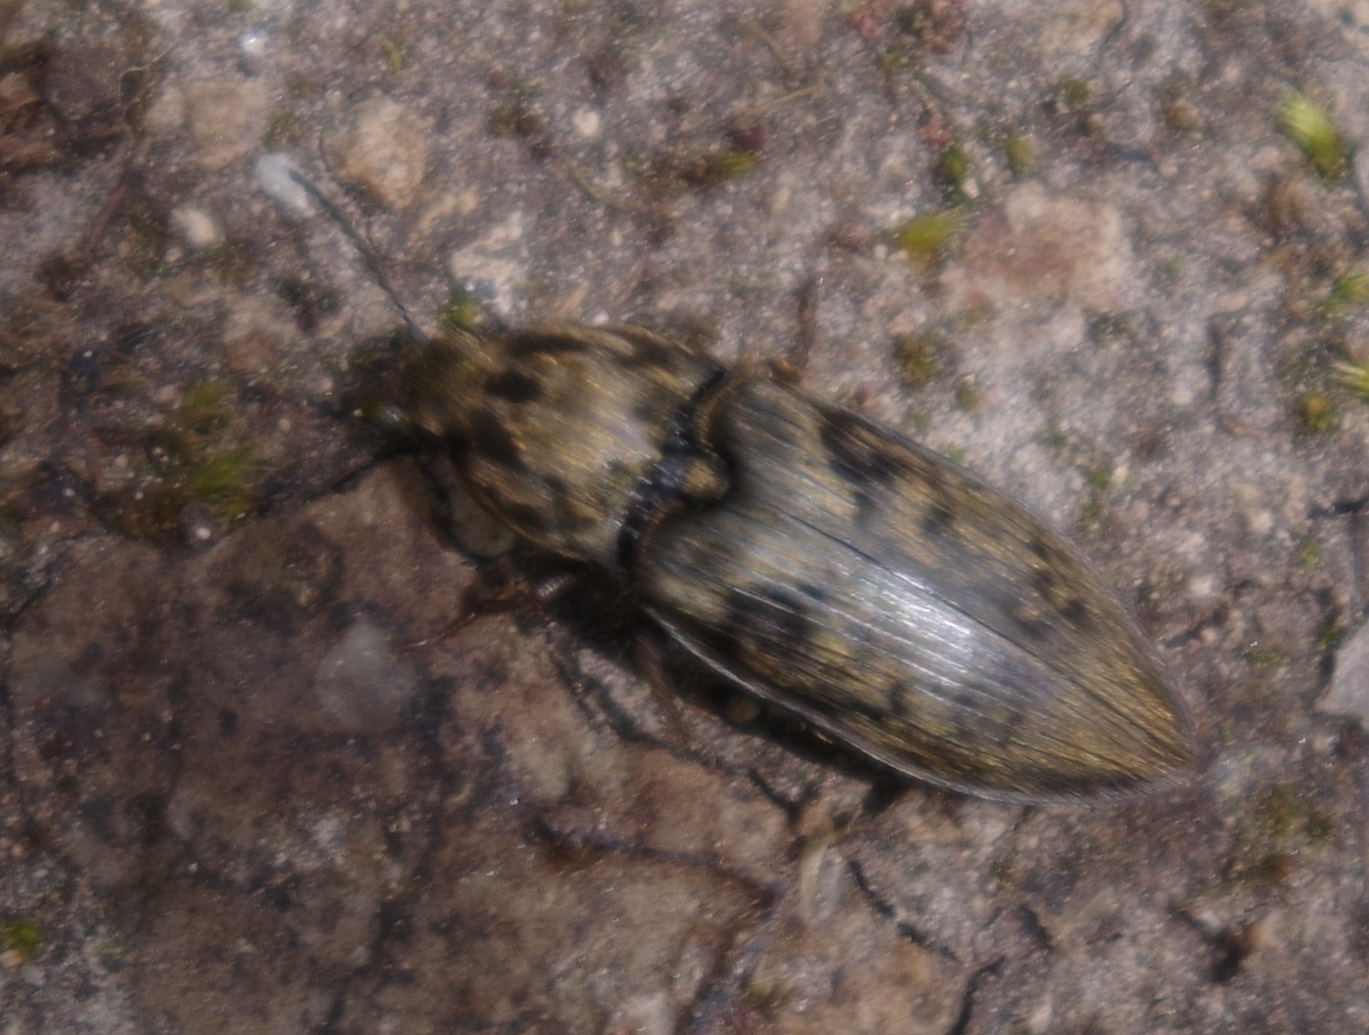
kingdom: Animalia
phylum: Arthropoda
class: Insecta
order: Coleoptera
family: Elateridae
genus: Prosternon
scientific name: Prosternon tessellatum
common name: Chequered click beetle
